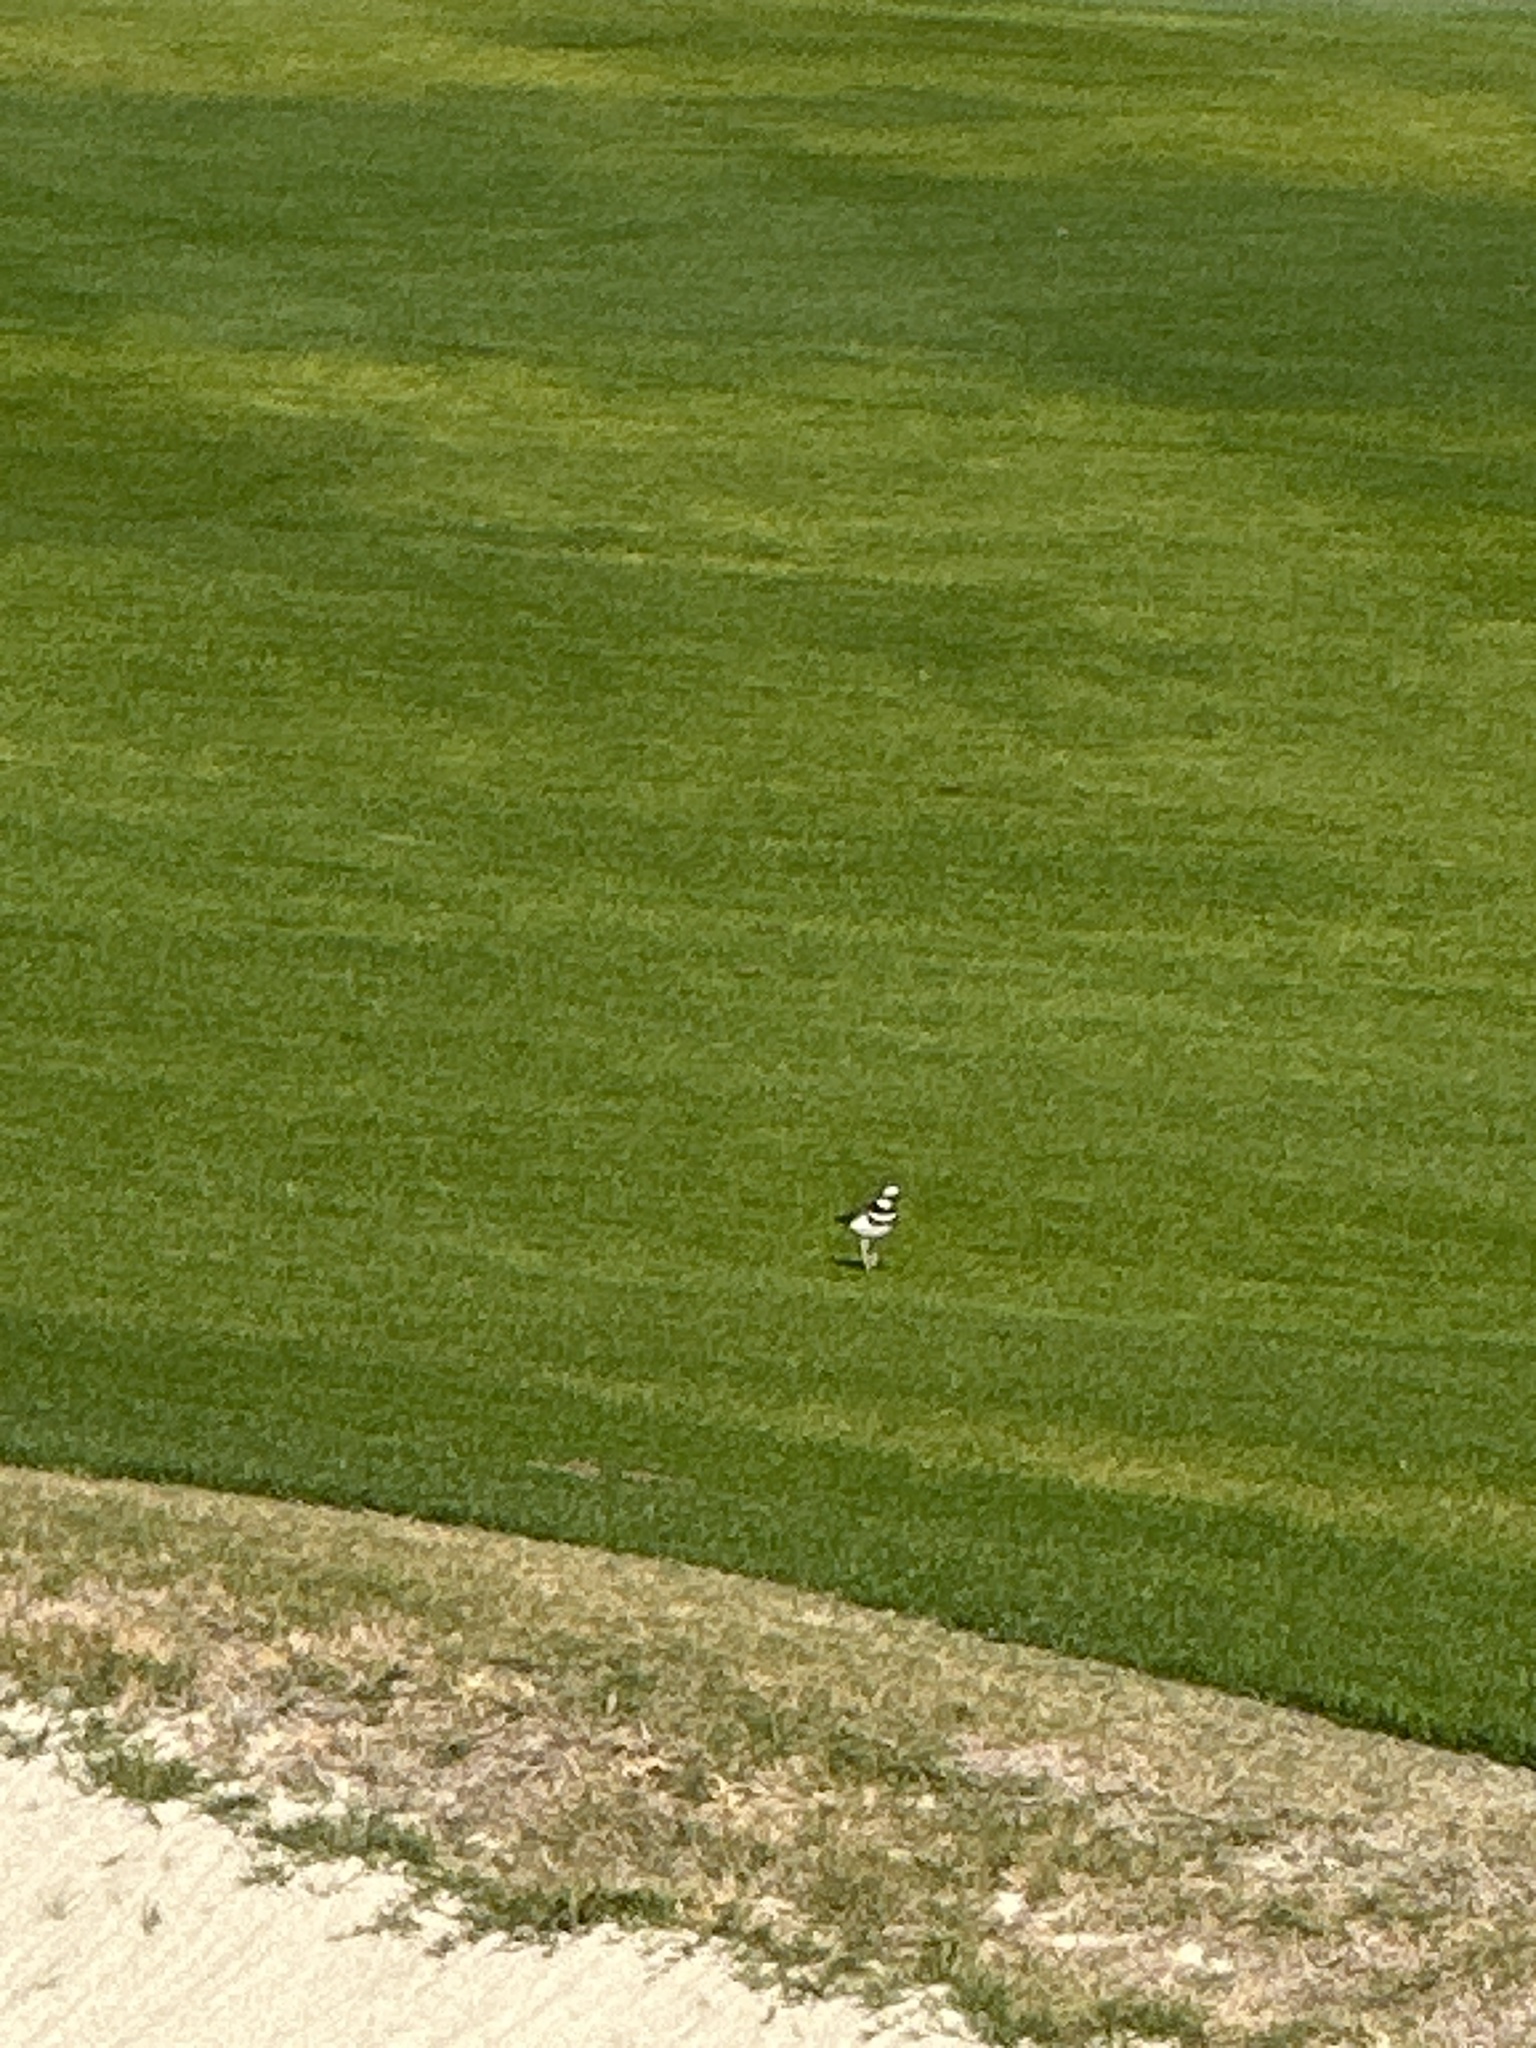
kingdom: Animalia
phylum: Chordata
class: Aves
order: Charadriiformes
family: Charadriidae
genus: Charadrius
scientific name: Charadrius vociferus
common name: Killdeer
